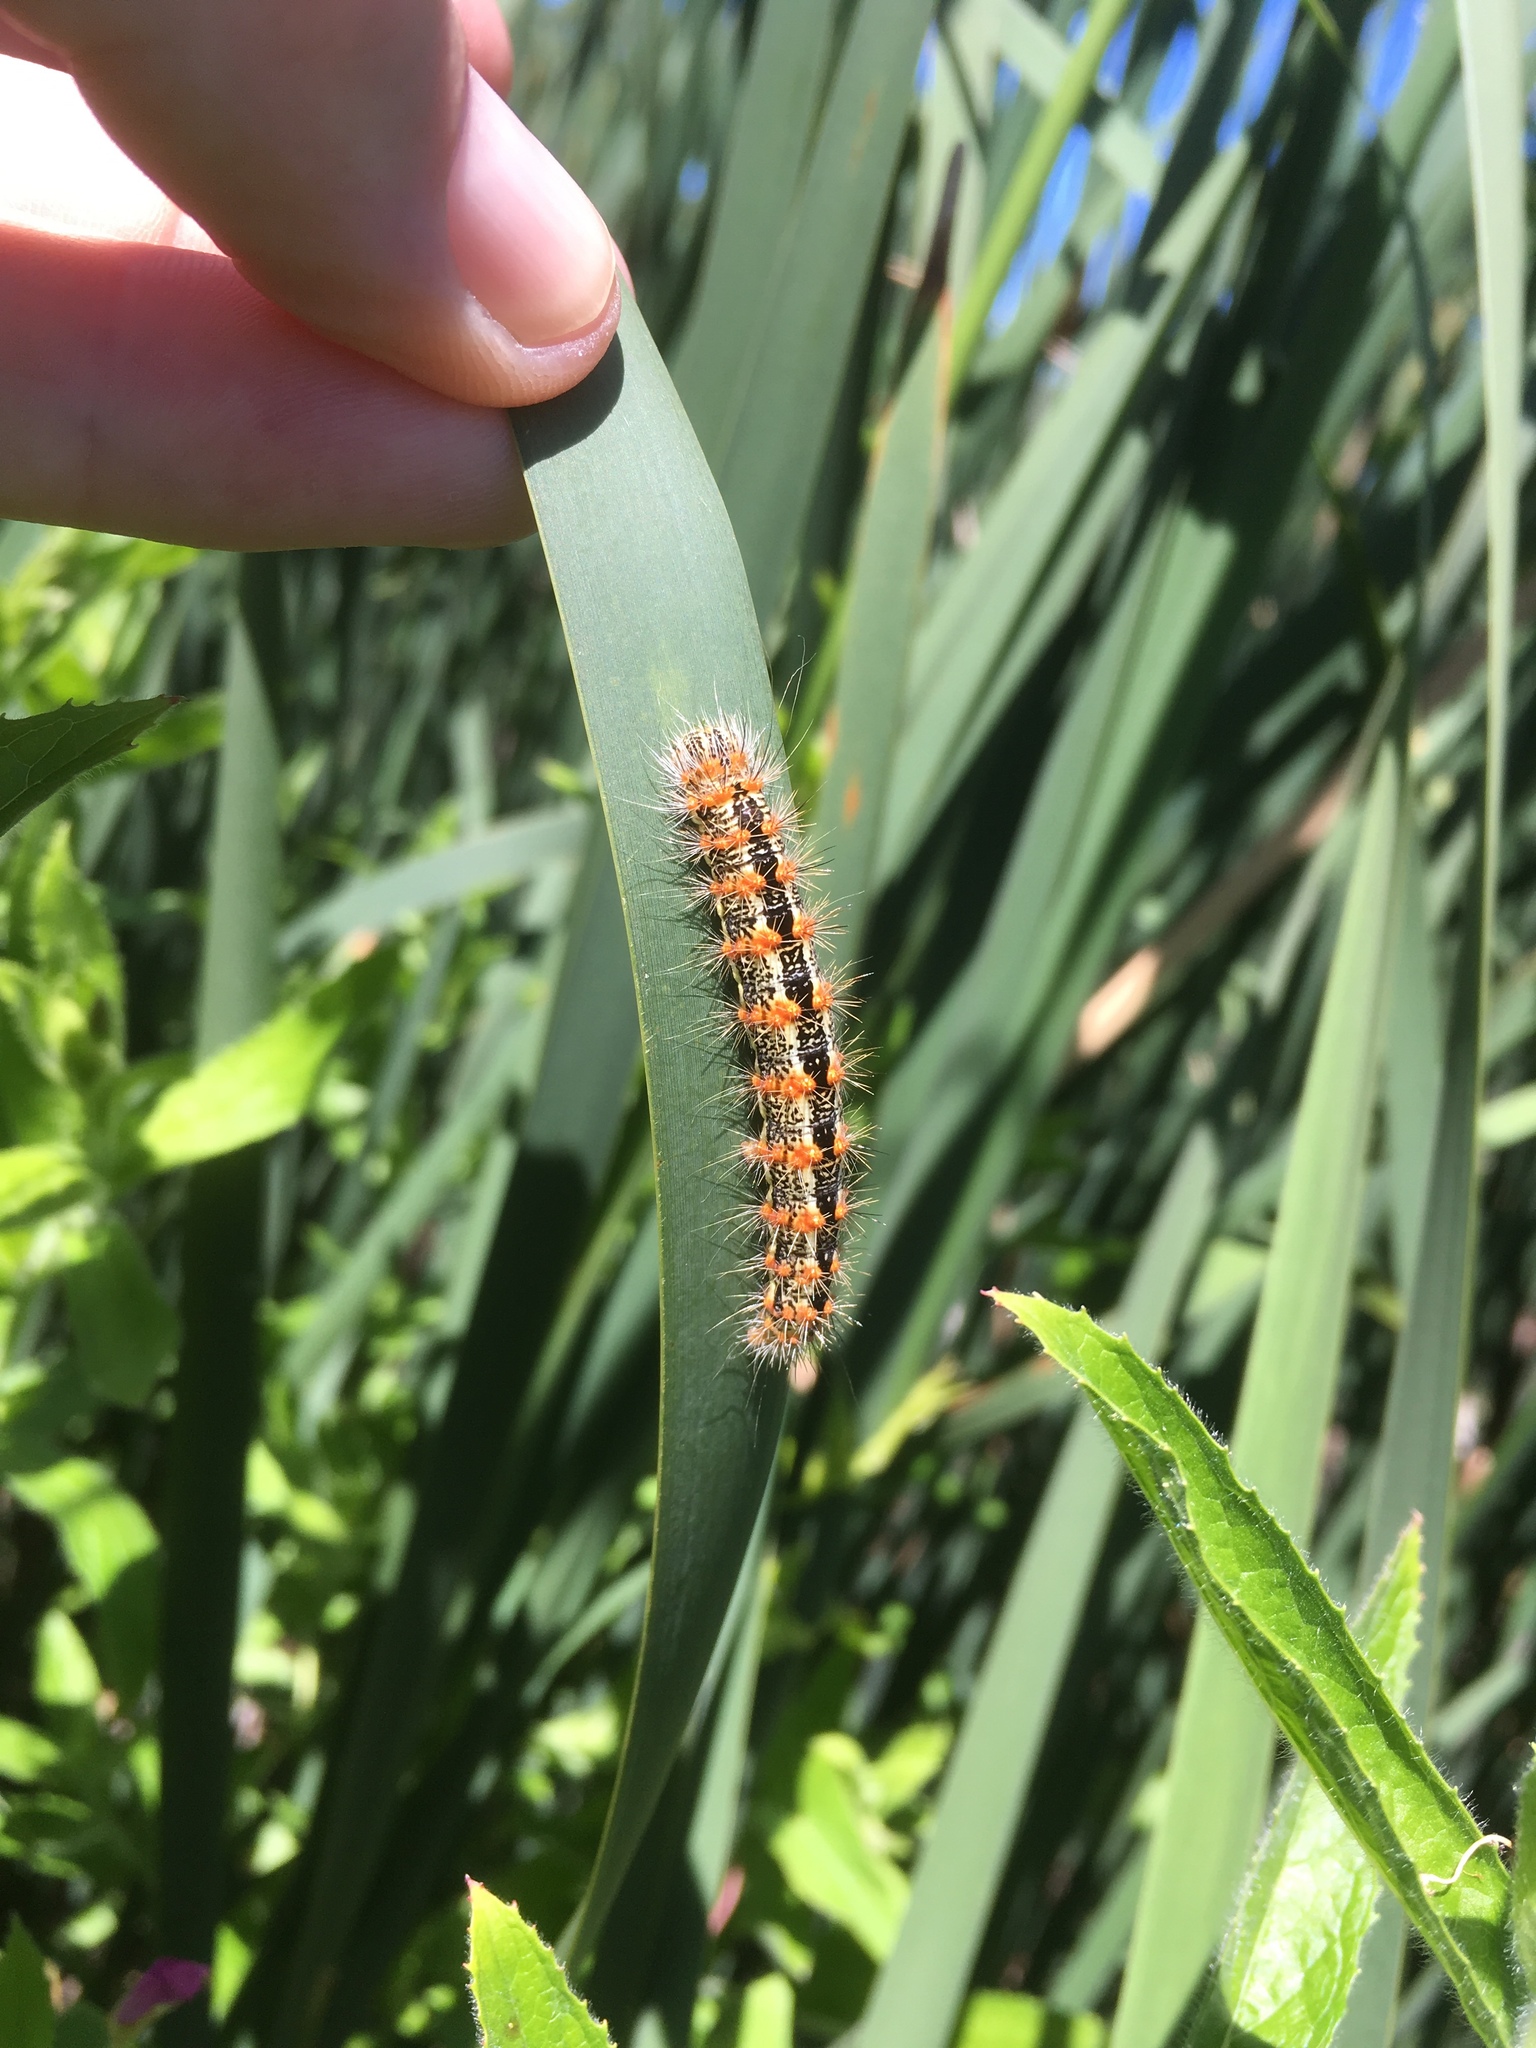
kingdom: Animalia
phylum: Arthropoda
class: Insecta
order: Lepidoptera
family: Noctuidae
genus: Acronicta
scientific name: Acronicta insularis
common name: Henry's marsh moth
